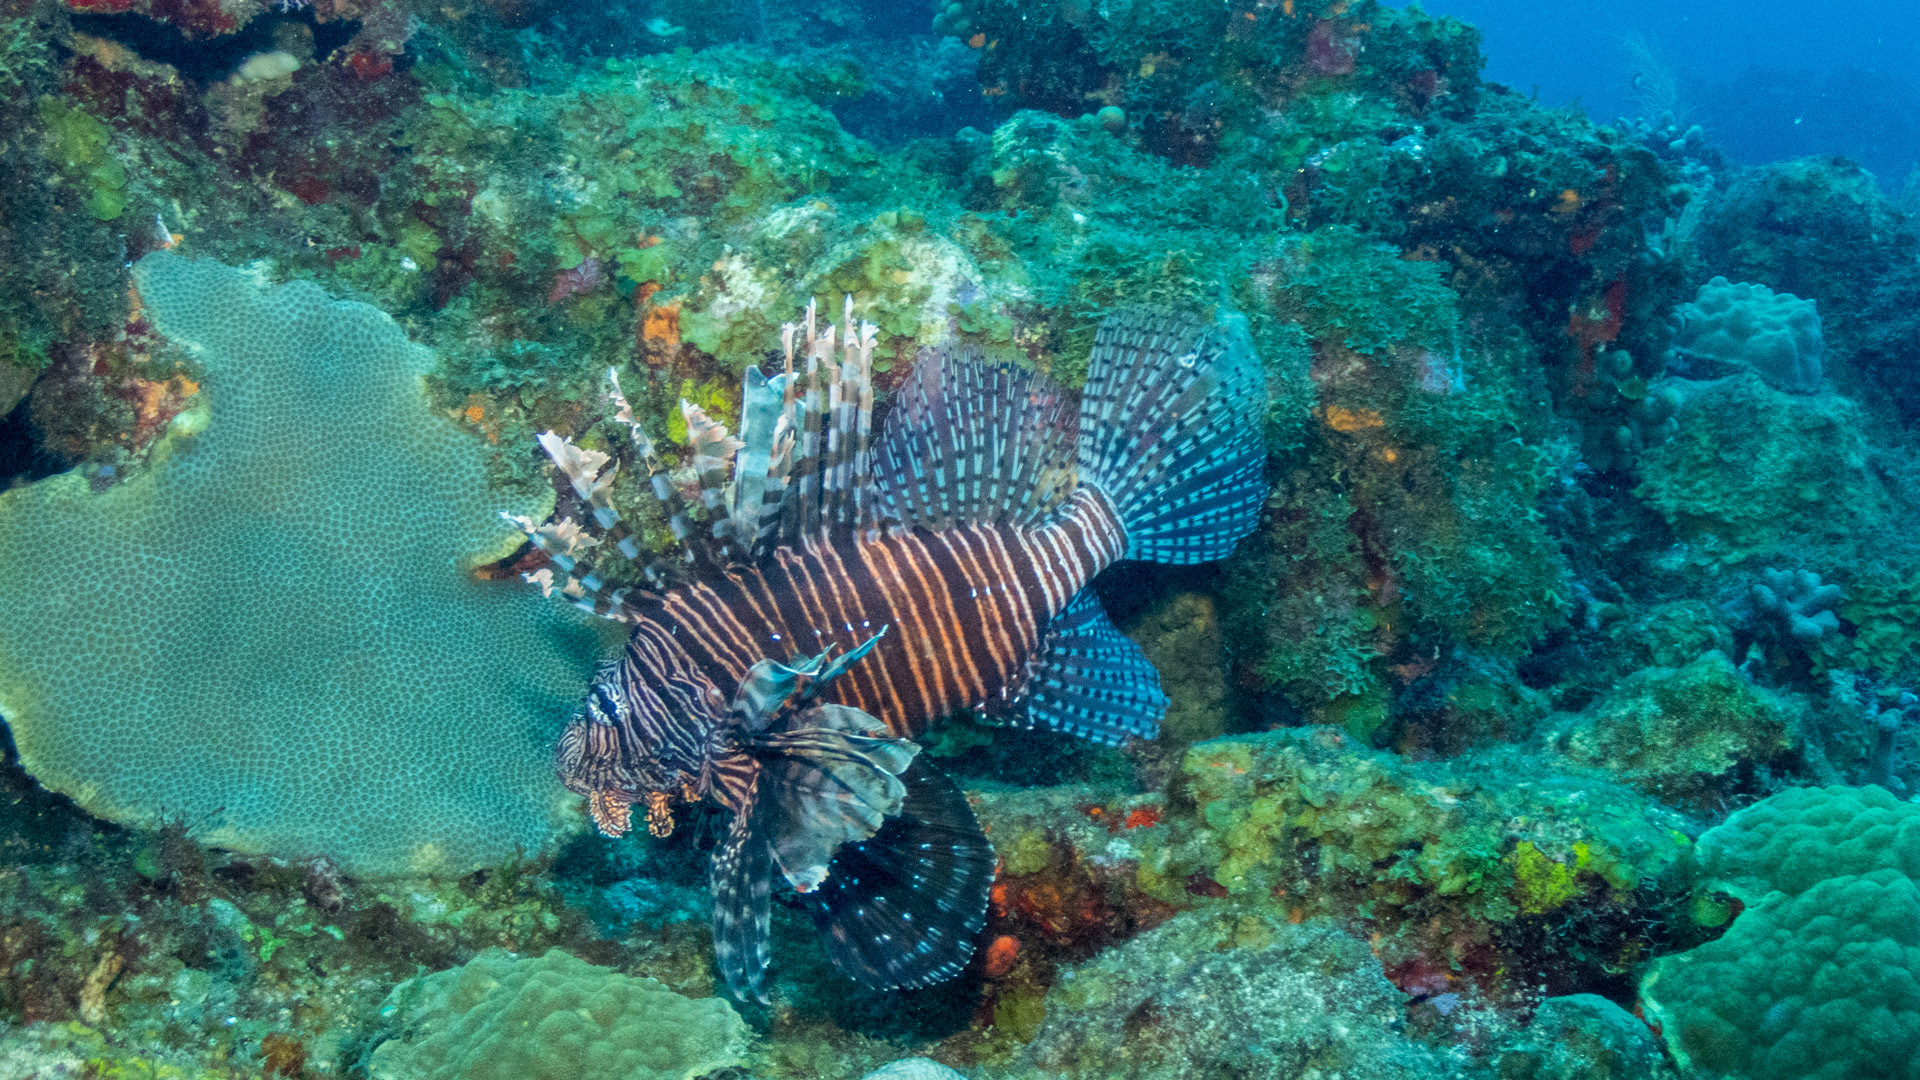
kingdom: Animalia
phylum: Chordata
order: Scorpaeniformes
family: Scorpaenidae
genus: Pterois
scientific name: Pterois volitans
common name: Lionfish
